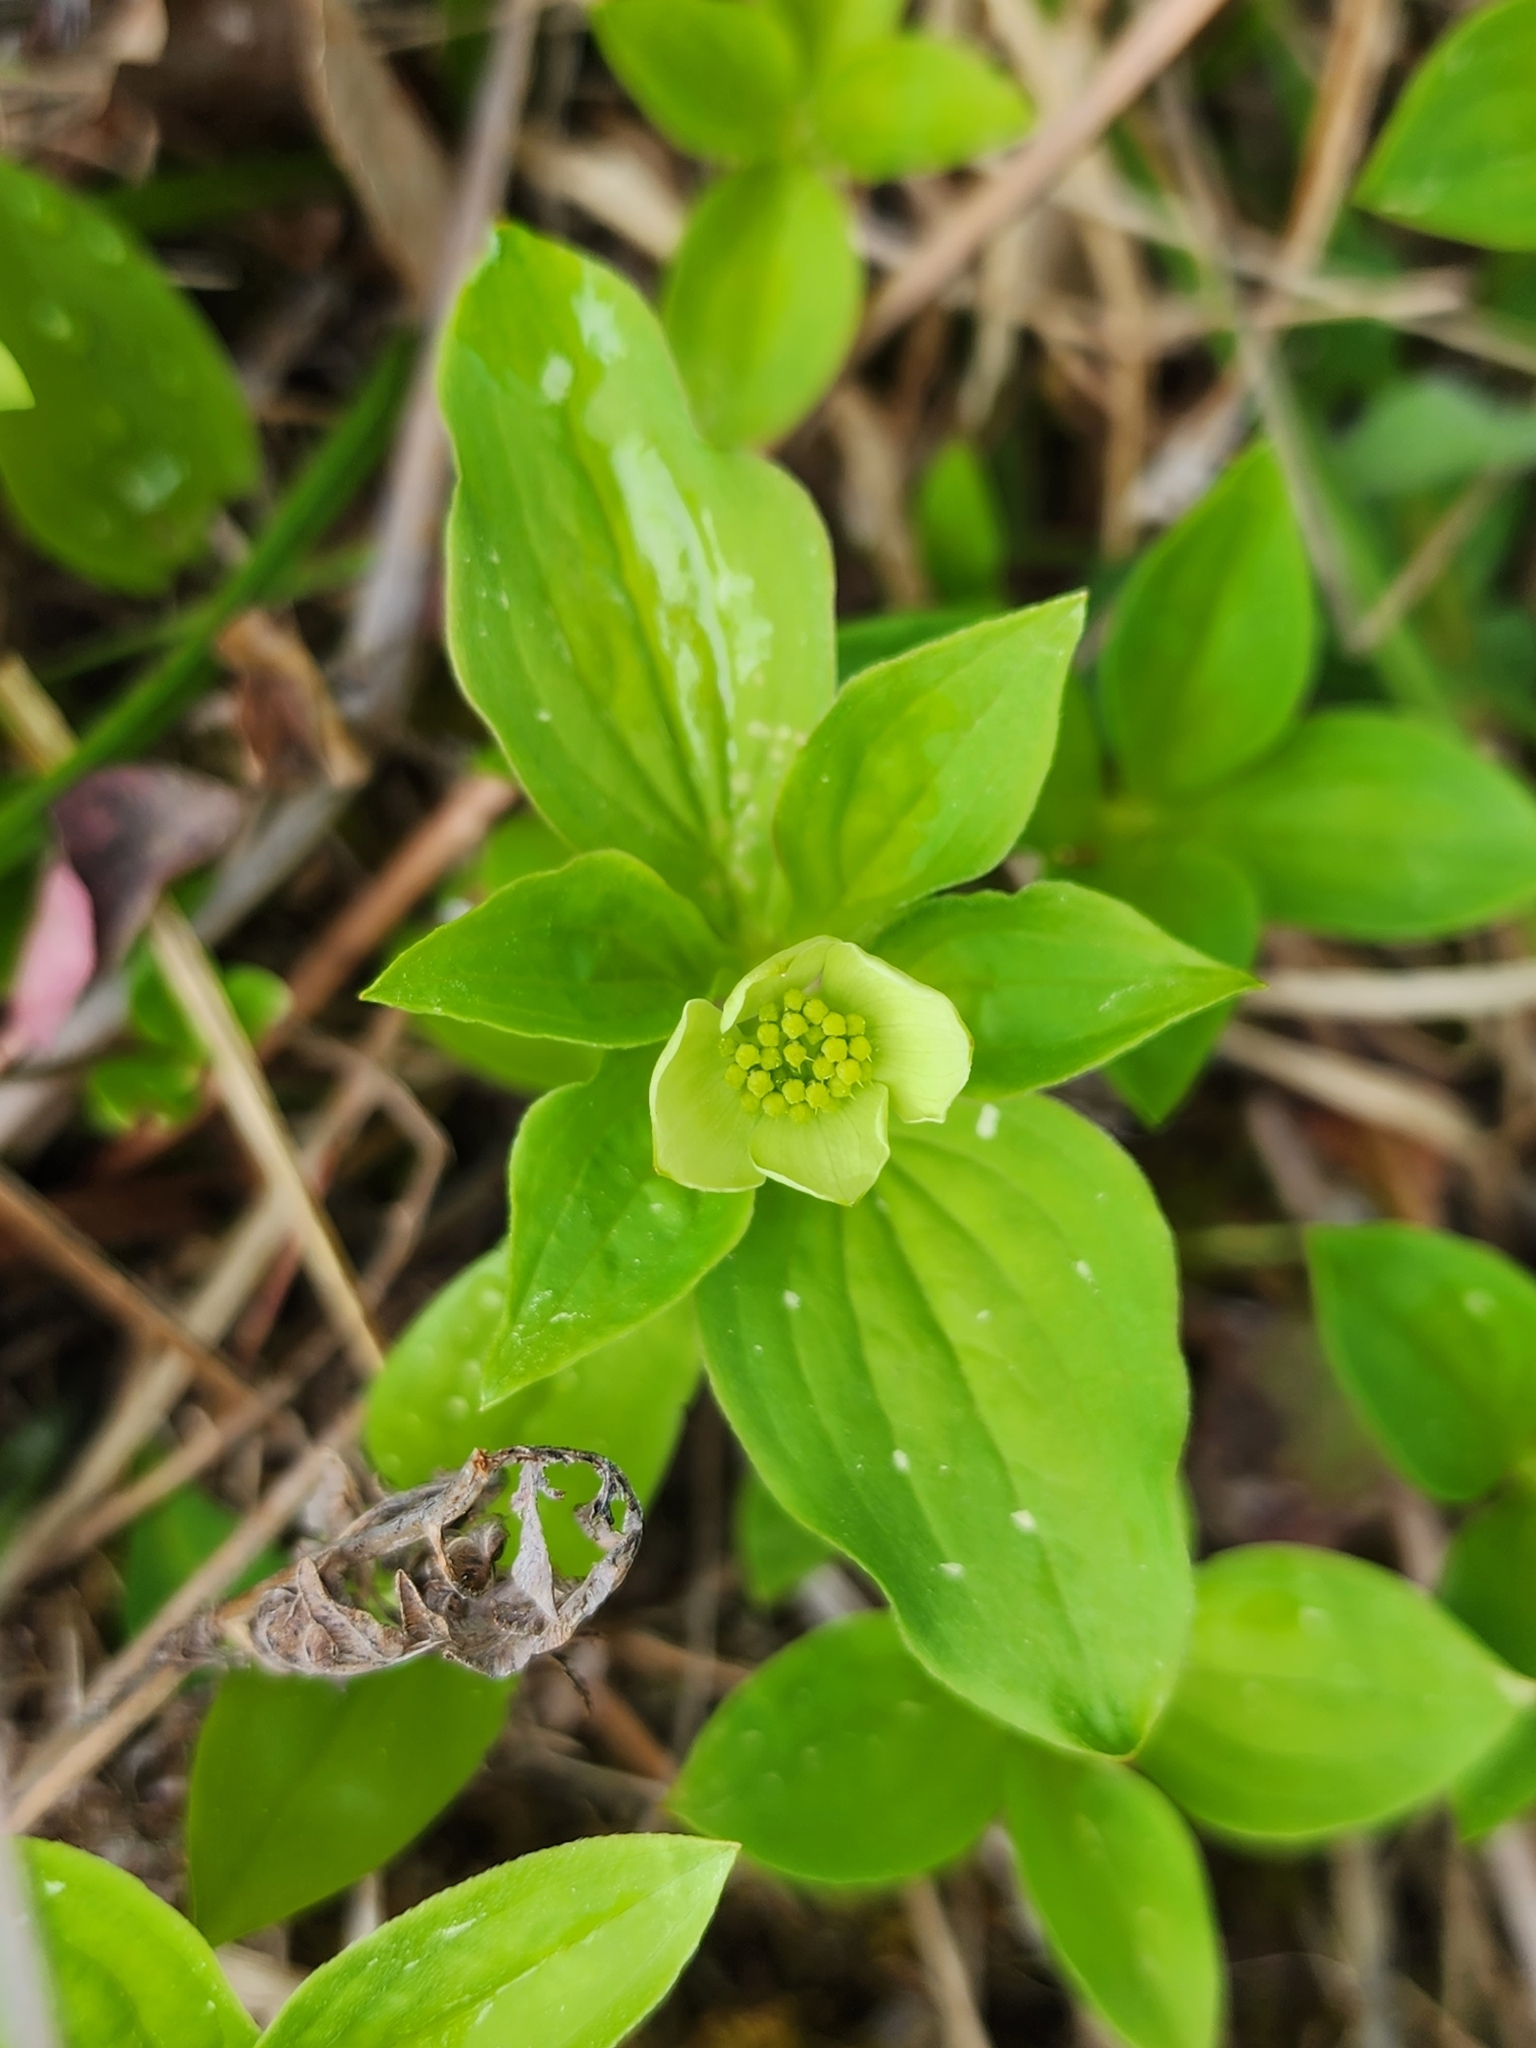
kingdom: Plantae
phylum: Tracheophyta
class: Magnoliopsida
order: Cornales
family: Cornaceae
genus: Cornus
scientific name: Cornus canadensis
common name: Creeping dogwood
